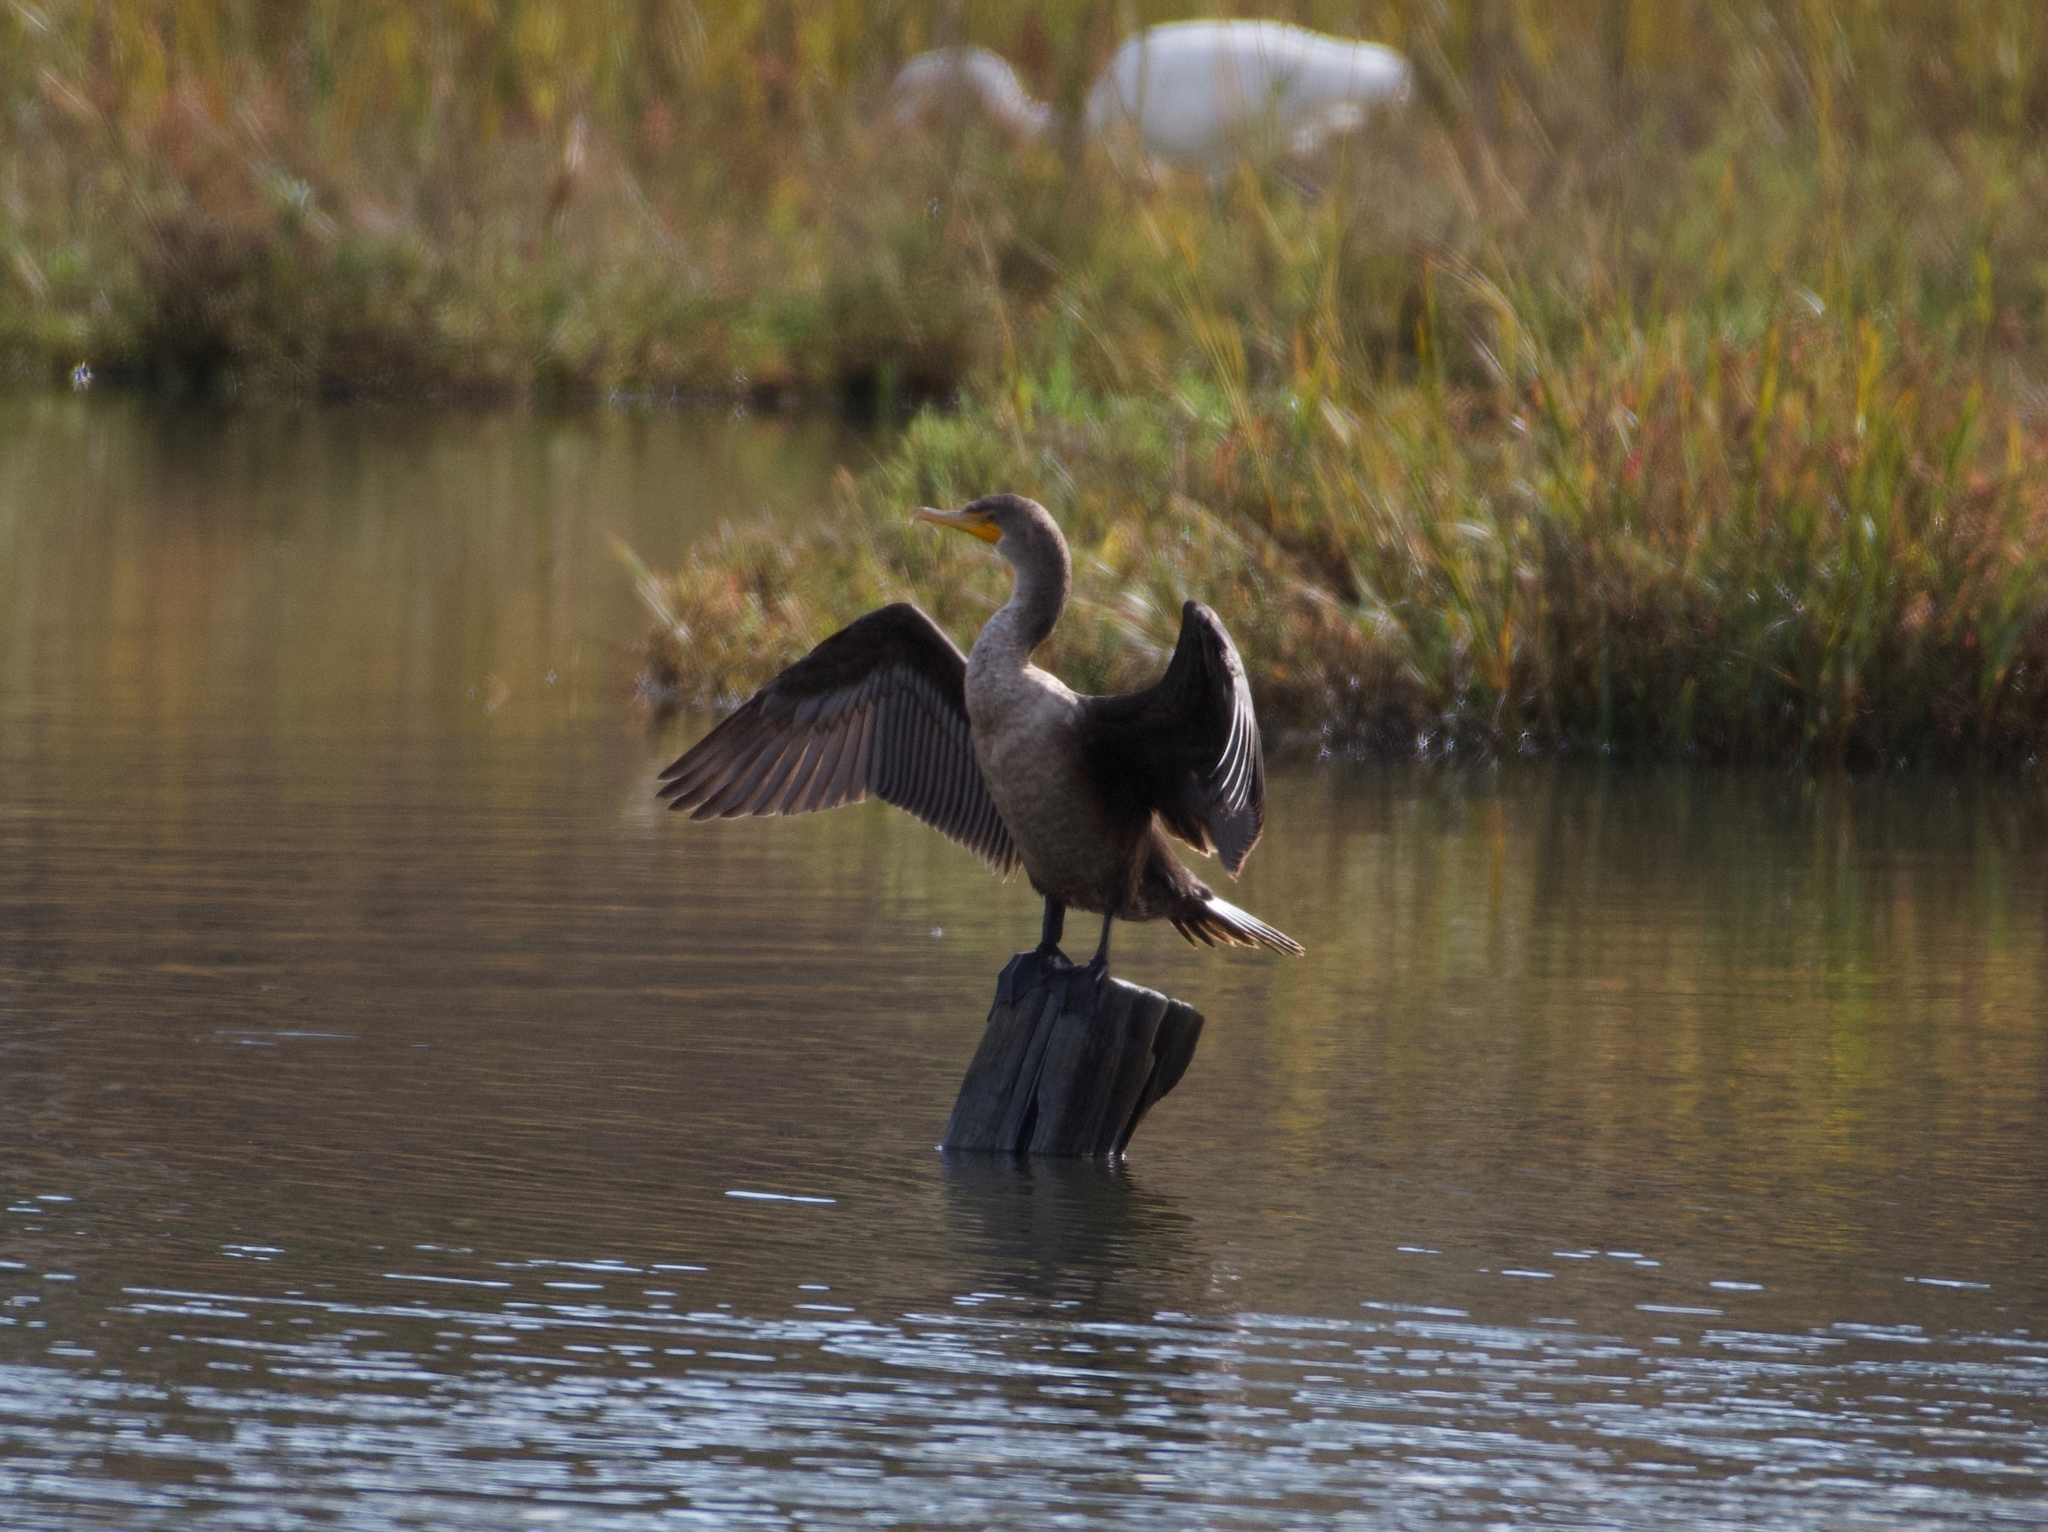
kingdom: Animalia
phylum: Chordata
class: Aves
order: Suliformes
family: Phalacrocoracidae
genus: Phalacrocorax
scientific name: Phalacrocorax auritus
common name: Double-crested cormorant
